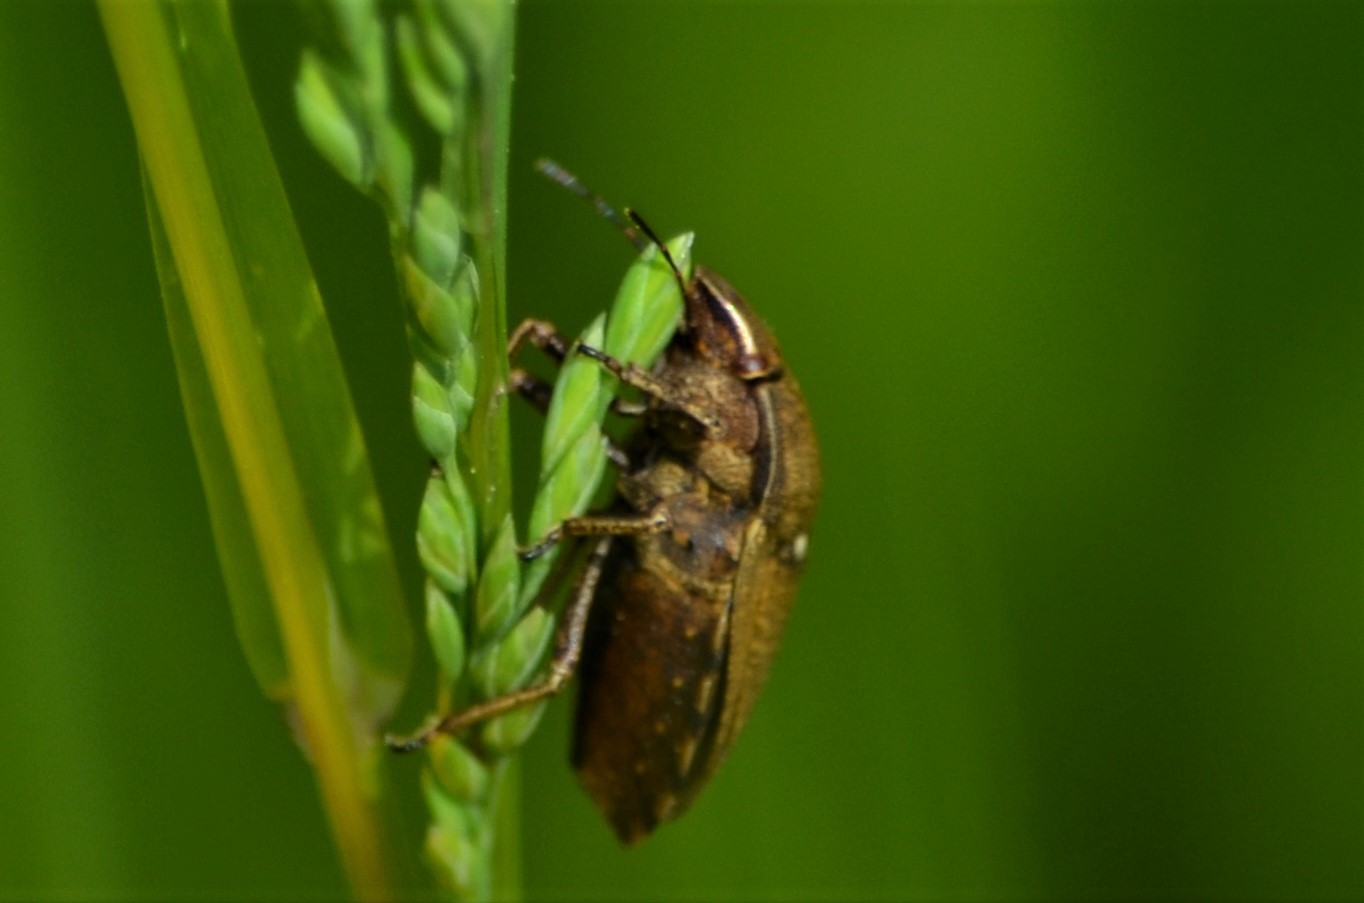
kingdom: Animalia
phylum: Arthropoda
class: Insecta
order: Hemiptera
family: Scutelleridae
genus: Eurygaster
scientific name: Eurygaster testudinaria
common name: Tortoise bug
